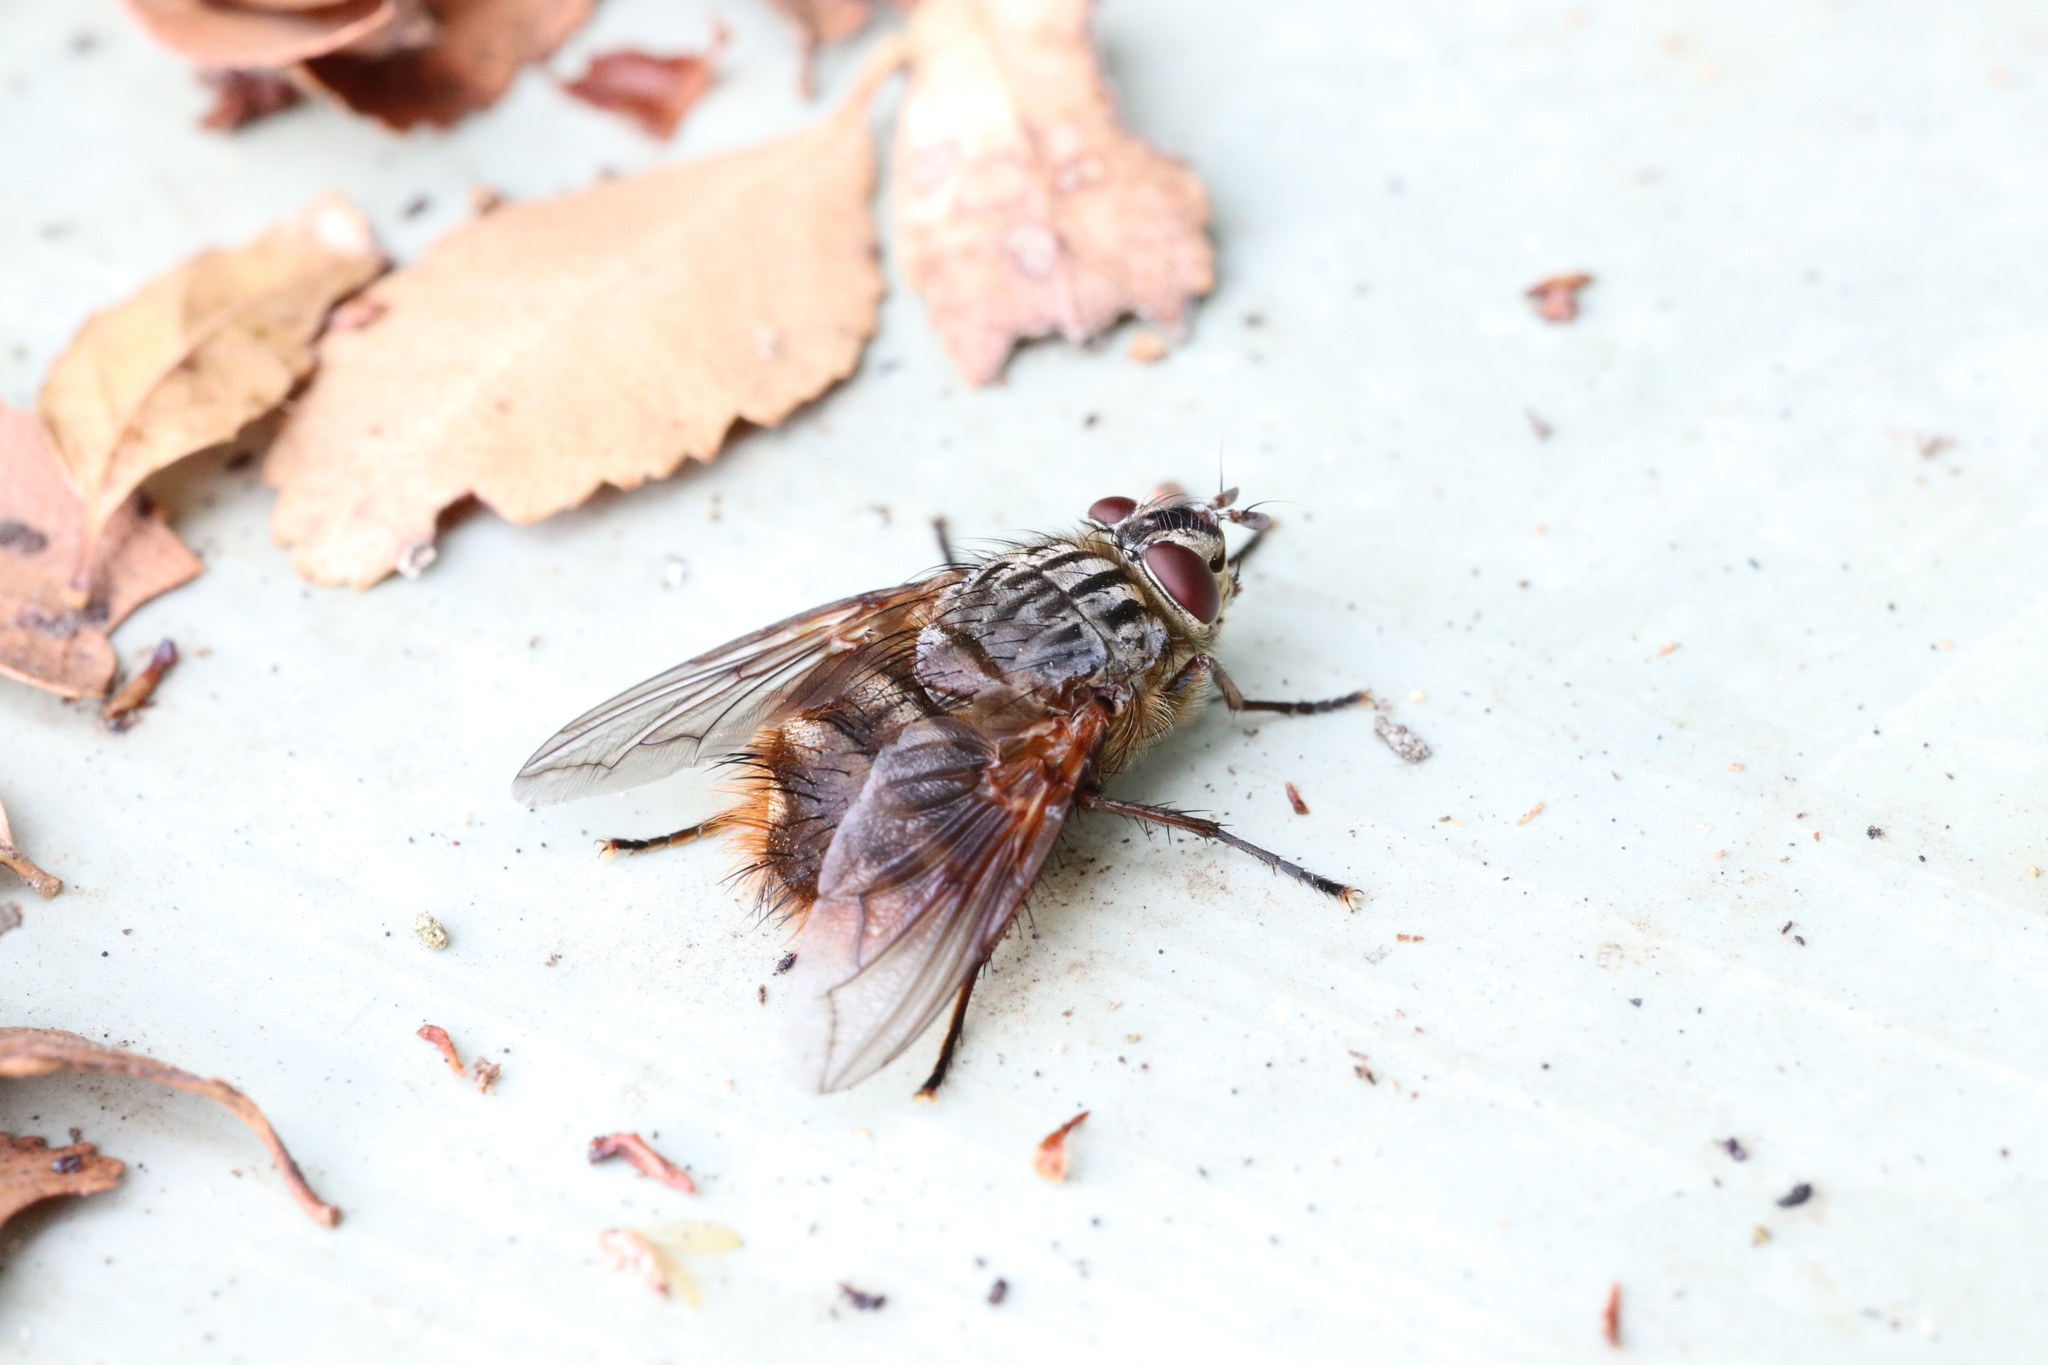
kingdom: Animalia
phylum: Arthropoda
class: Insecta
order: Diptera
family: Tachinidae
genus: Pelycops
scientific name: Pelycops darwini
